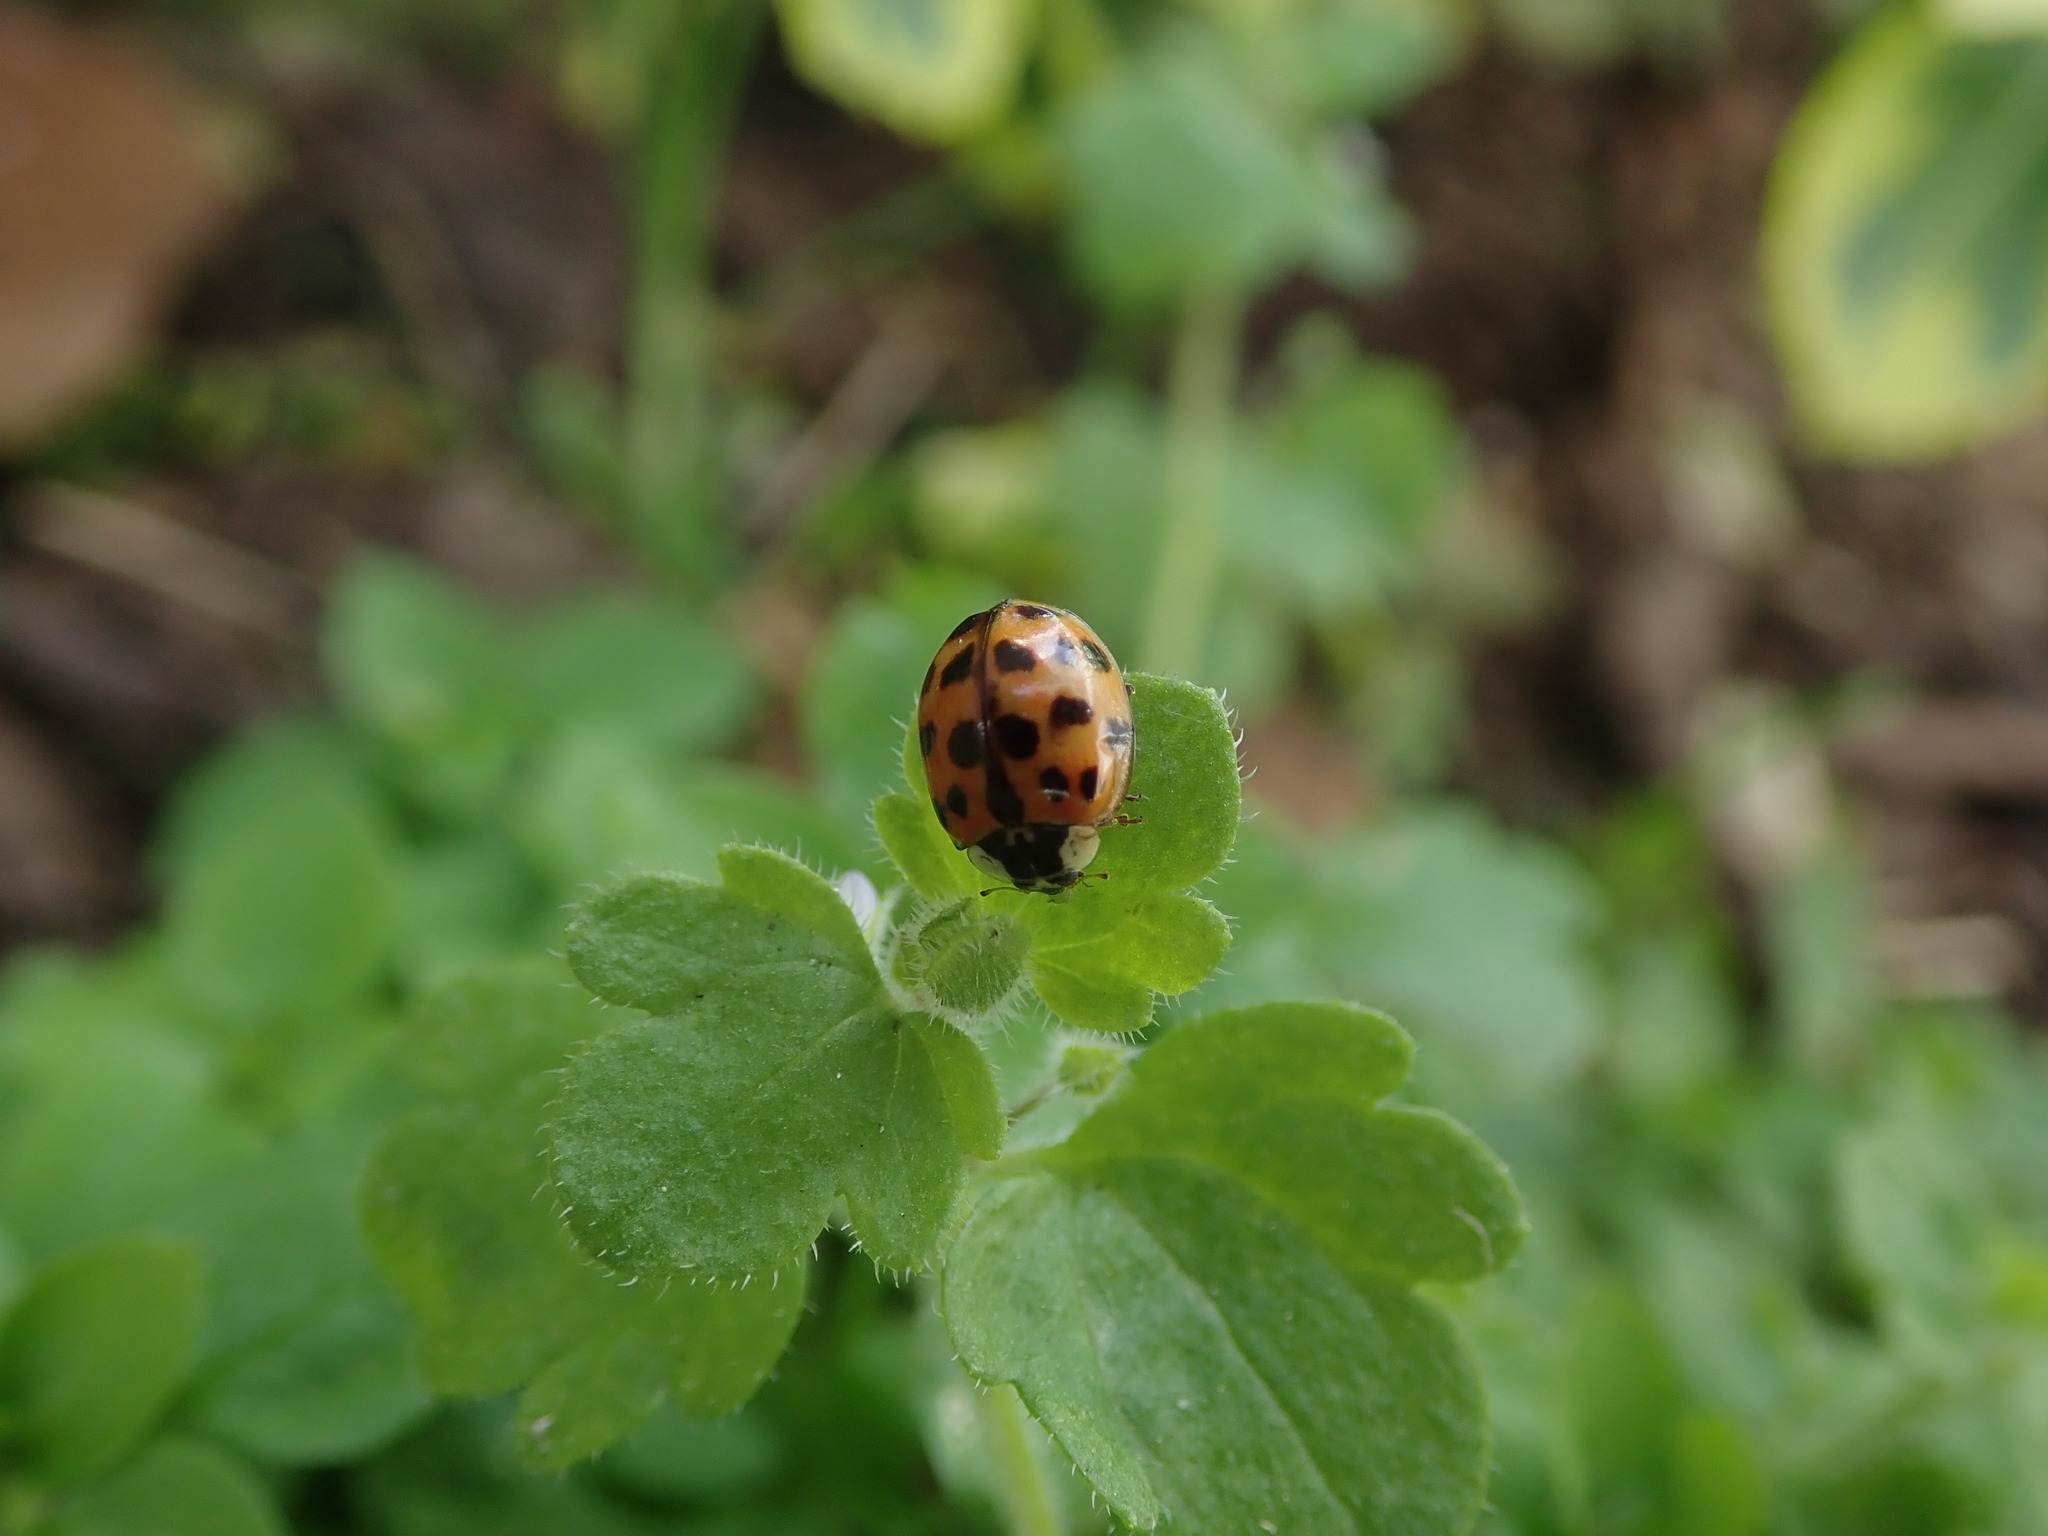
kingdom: Animalia
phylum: Arthropoda
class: Insecta
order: Coleoptera
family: Coccinellidae
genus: Harmonia
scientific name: Harmonia axyridis
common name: Harlequin ladybird
